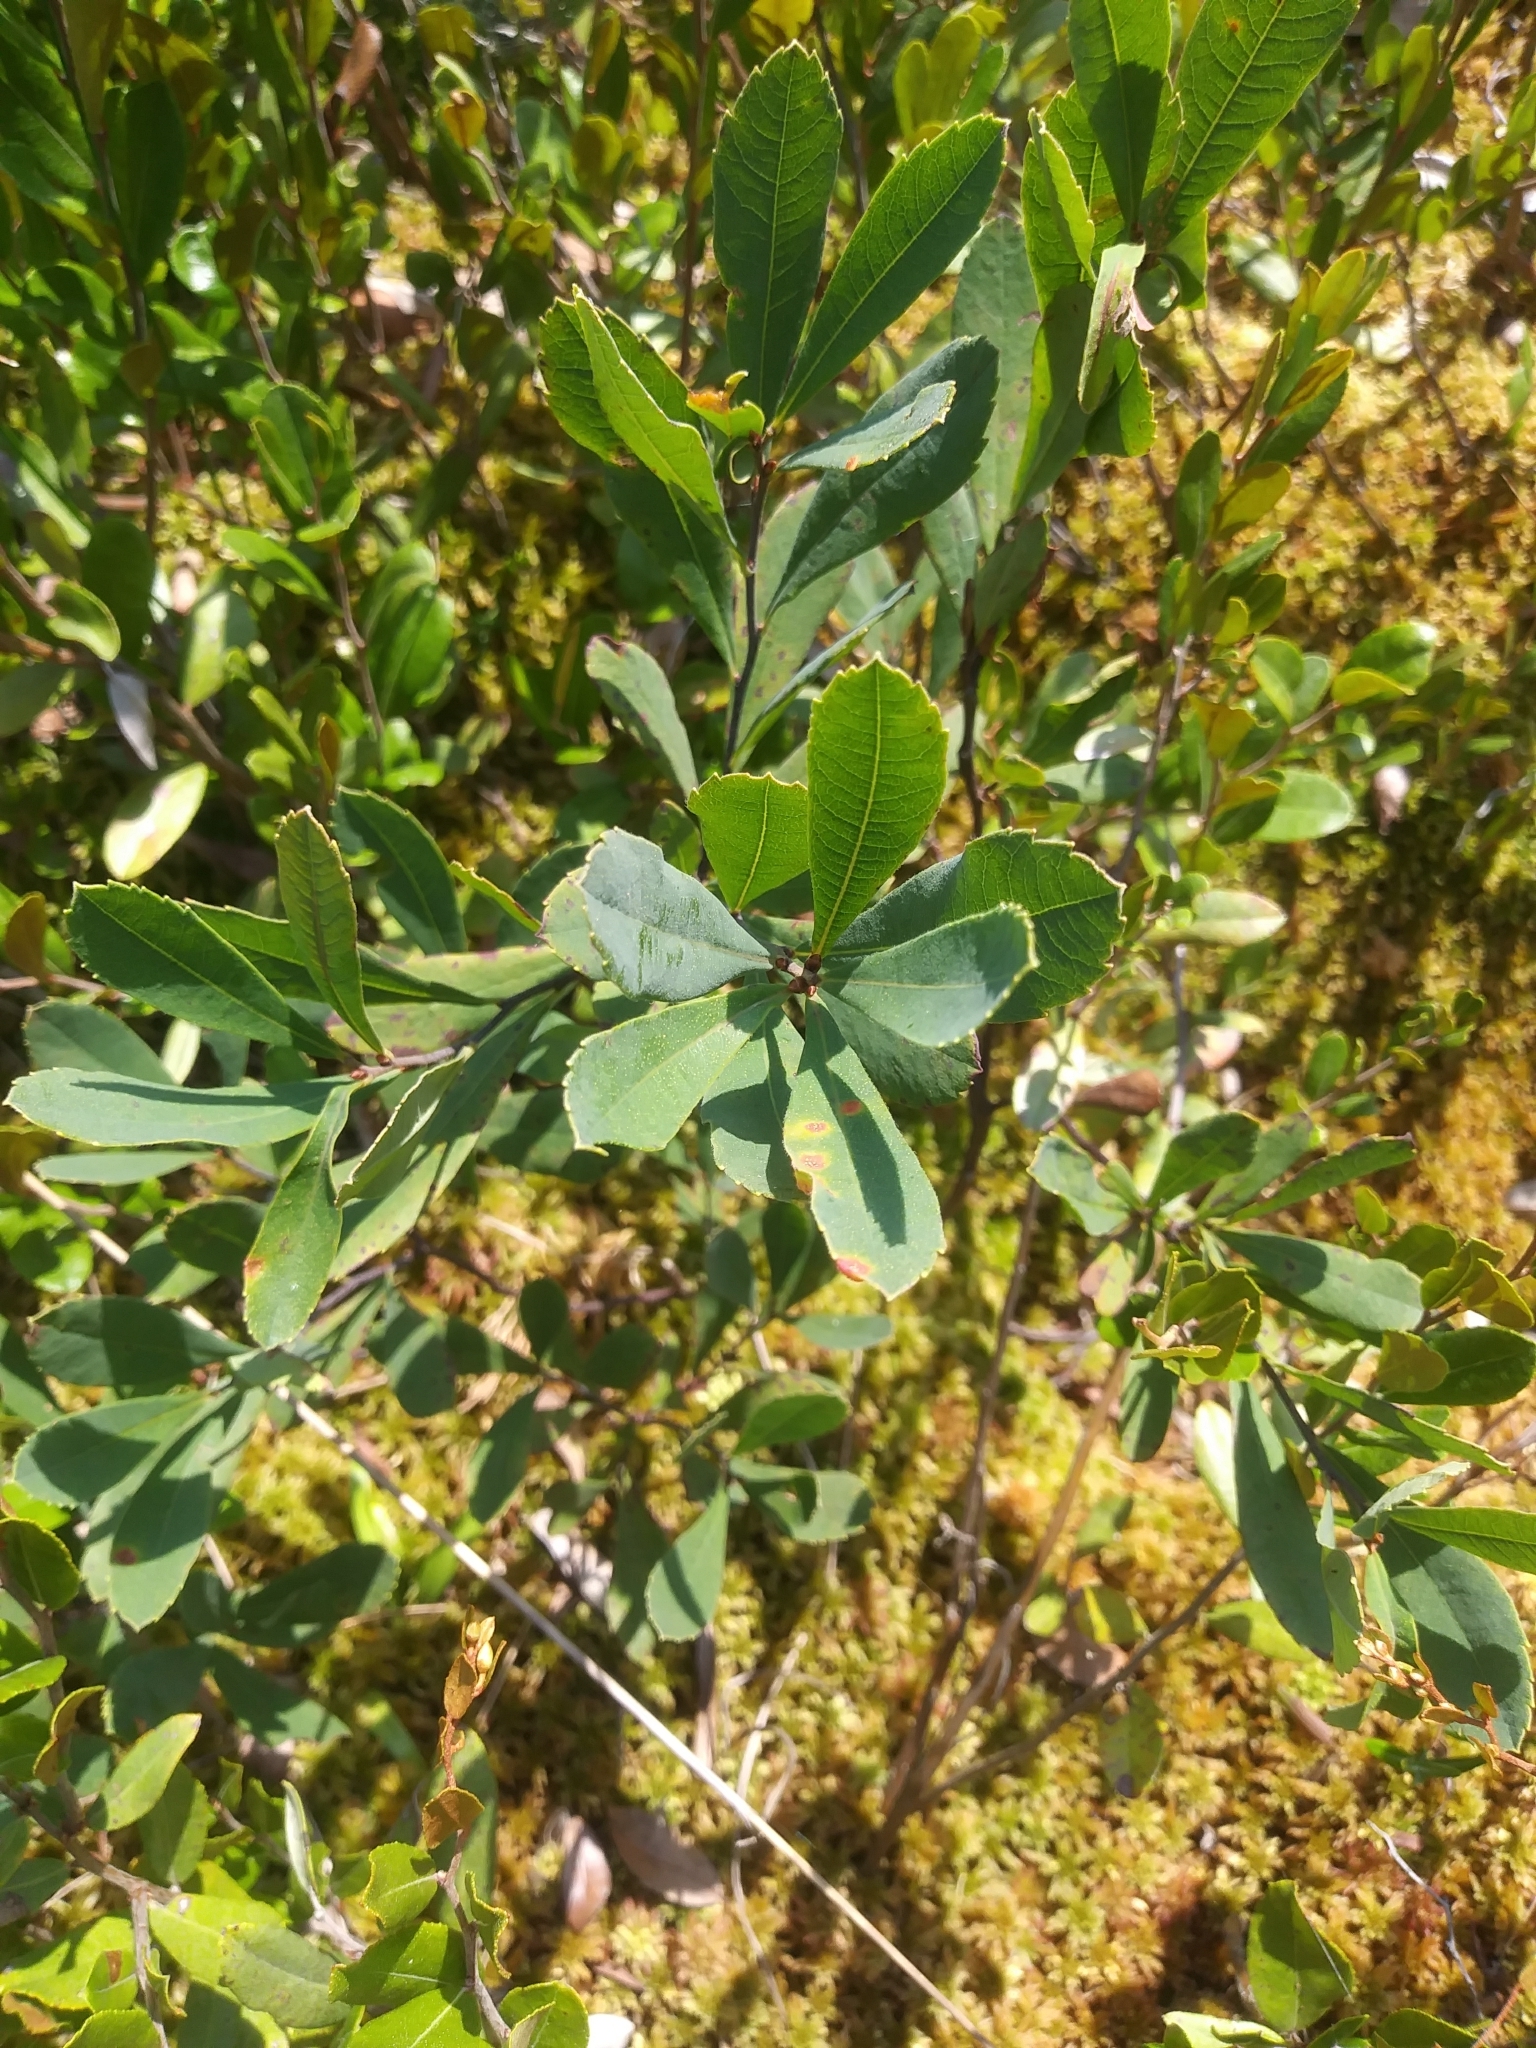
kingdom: Plantae
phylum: Tracheophyta
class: Magnoliopsida
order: Fagales
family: Myricaceae
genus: Myrica
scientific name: Myrica gale
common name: Sweet gale
